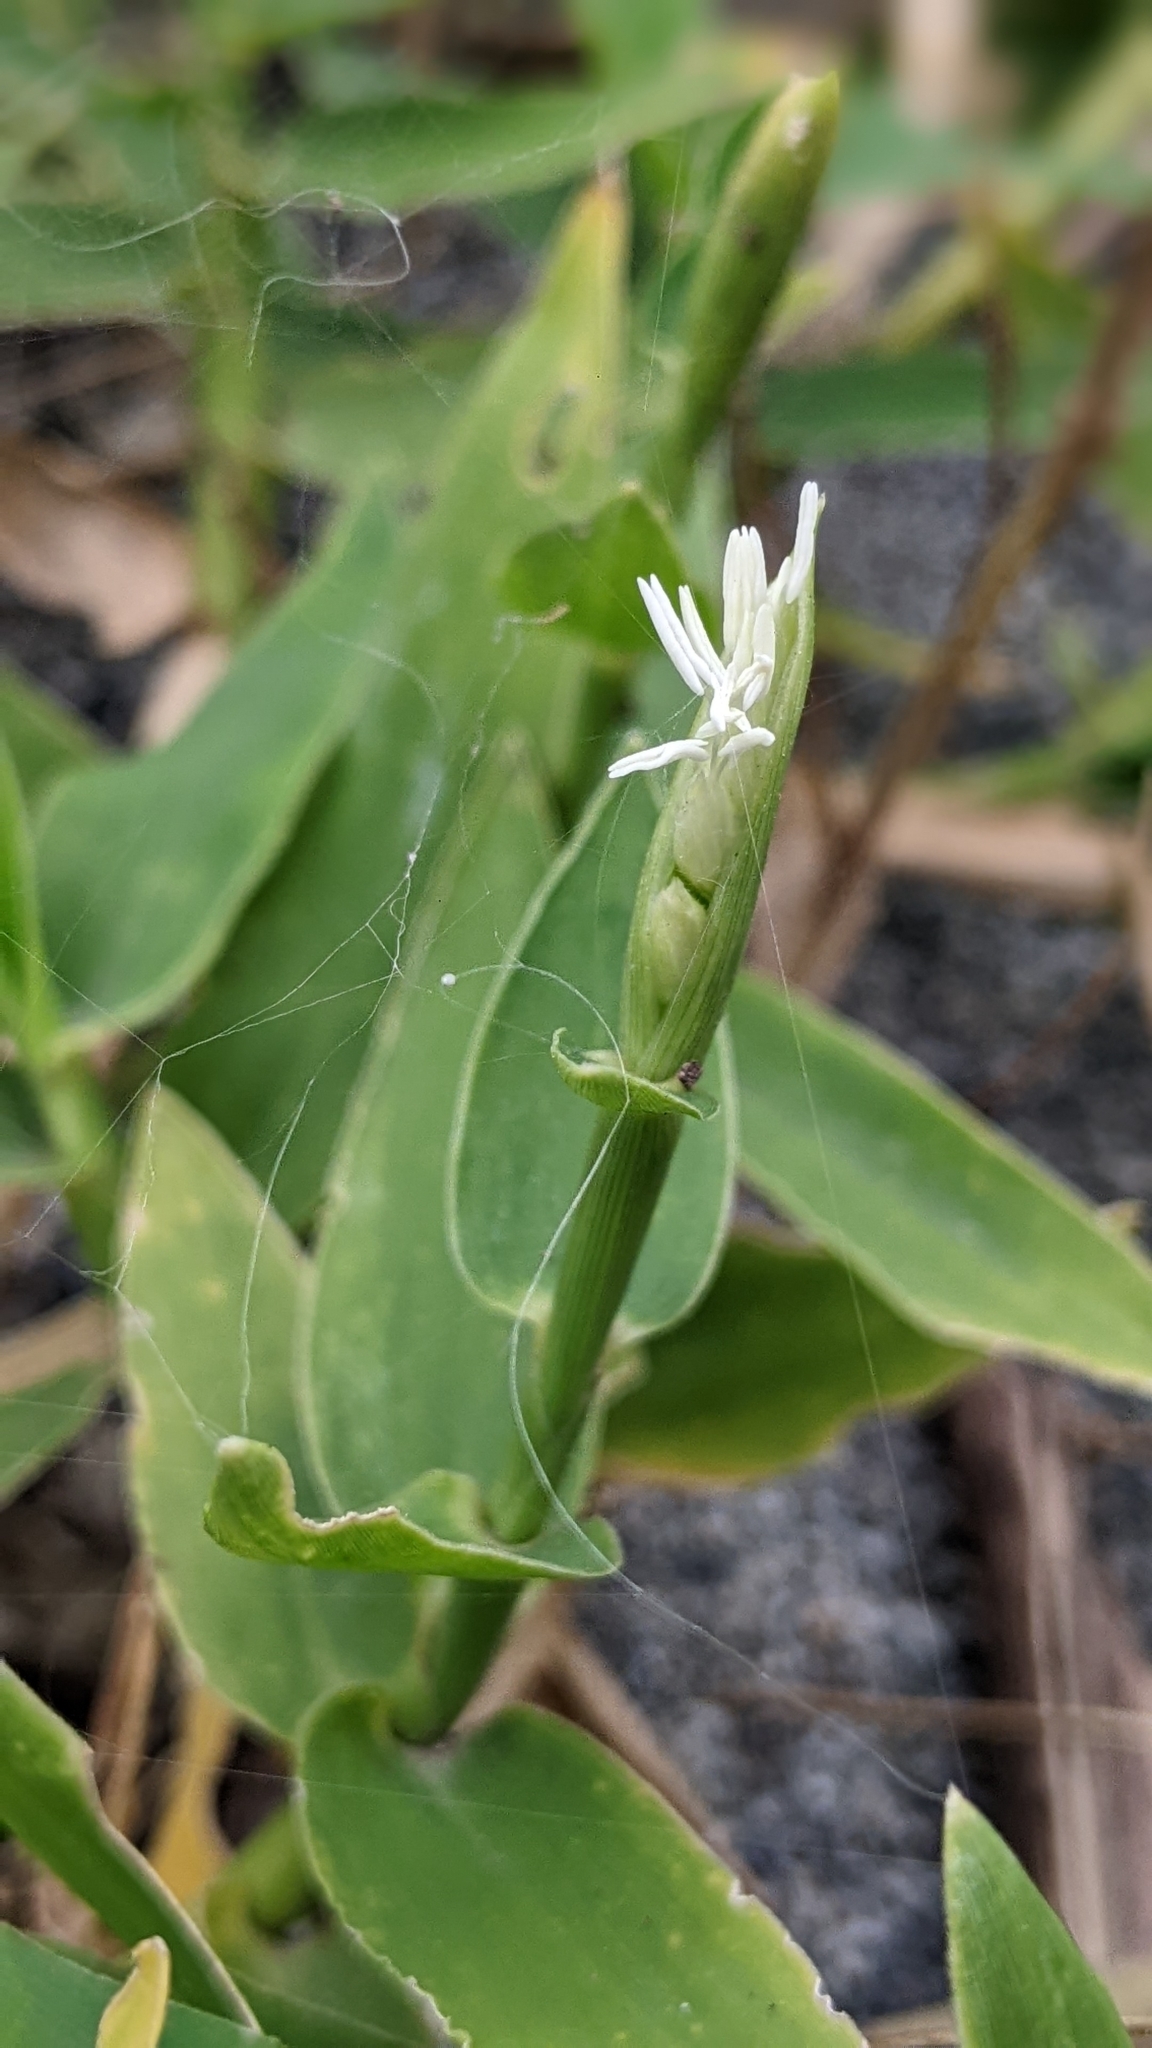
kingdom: Plantae
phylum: Tracheophyta
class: Liliopsida
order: Poales
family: Poaceae
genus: Thuarea
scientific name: Thuarea involuta
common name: Tropical beach grass
